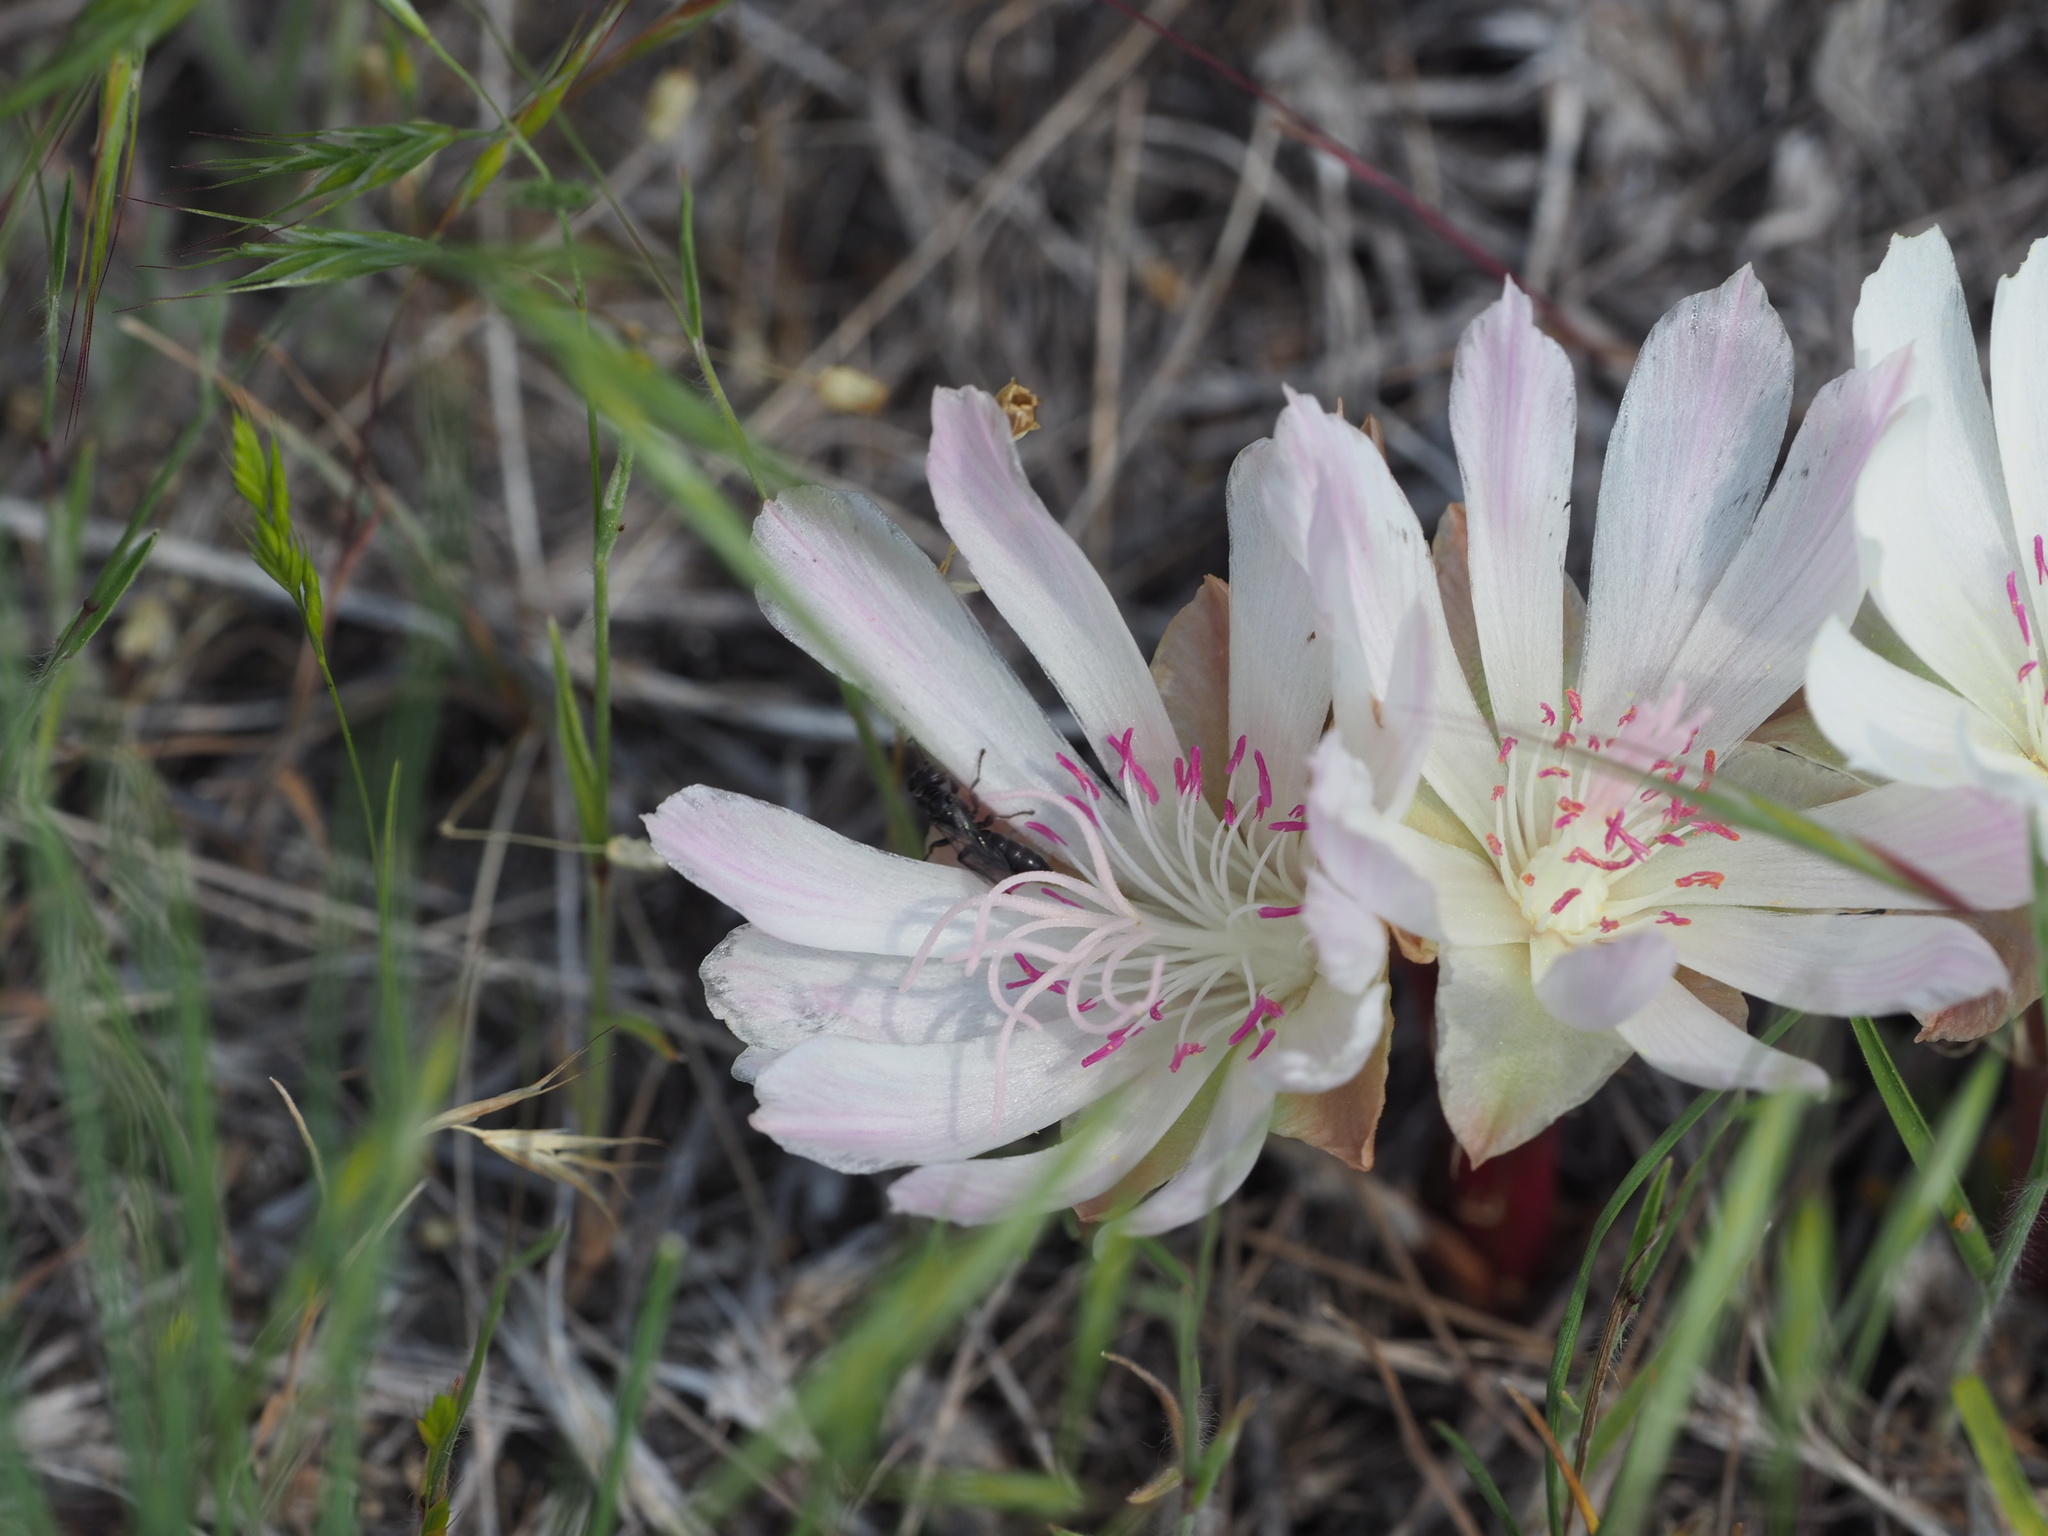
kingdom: Plantae
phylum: Tracheophyta
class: Magnoliopsida
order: Caryophyllales
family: Montiaceae
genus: Lewisia
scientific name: Lewisia rediviva
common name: Bitter-root
